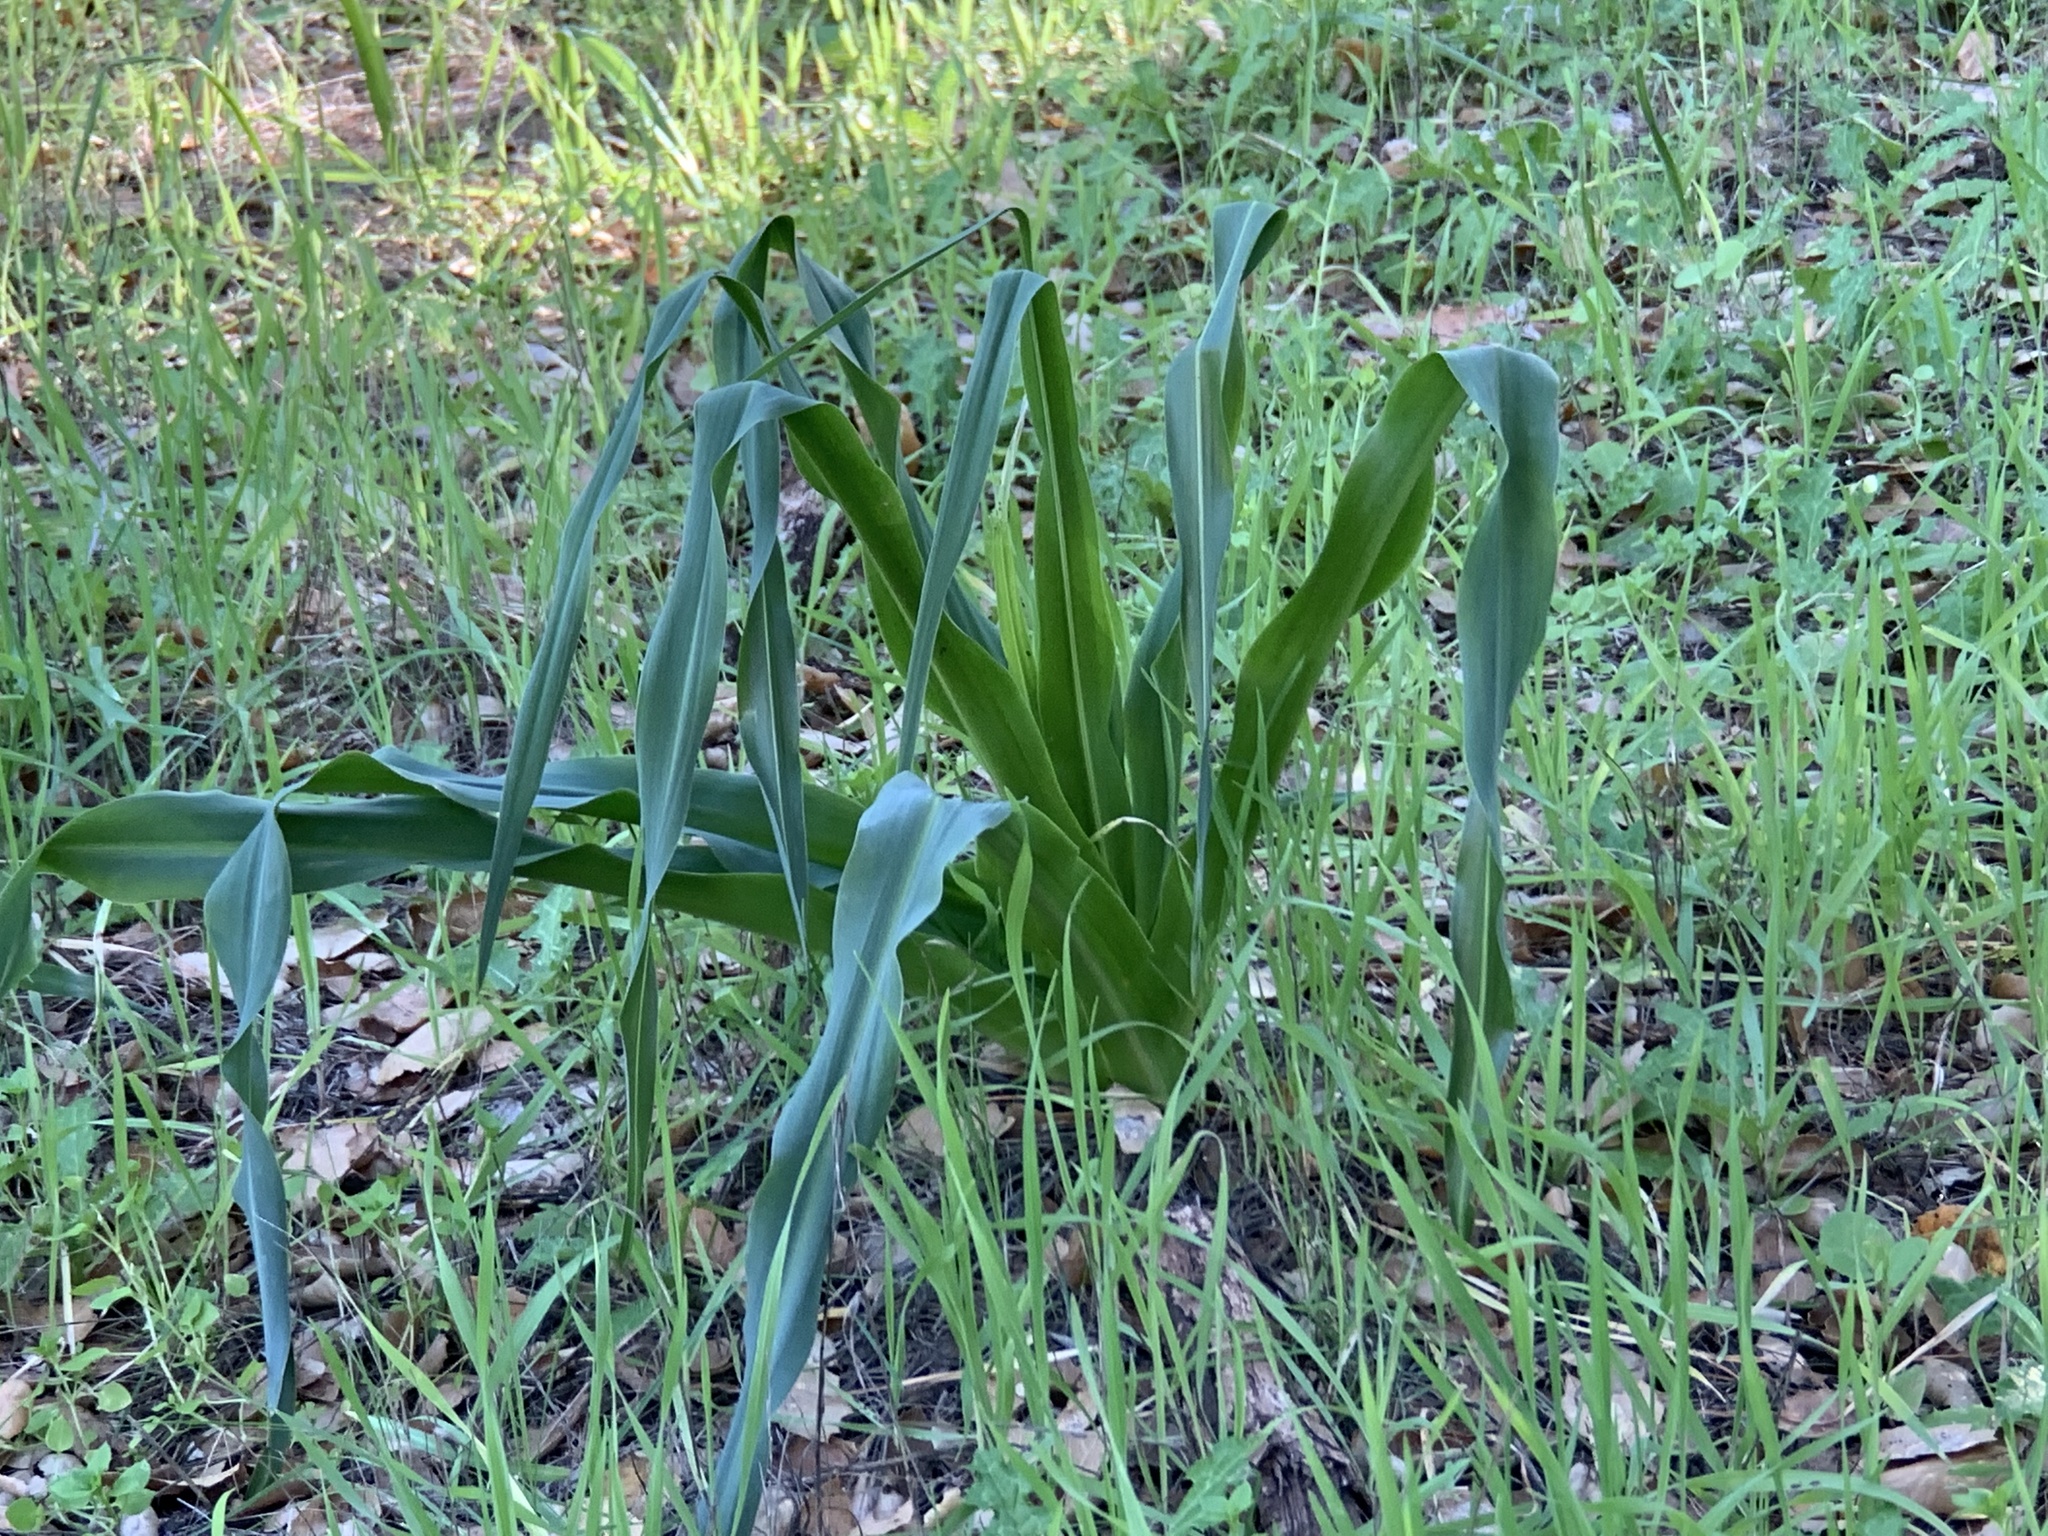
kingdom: Plantae
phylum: Tracheophyta
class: Liliopsida
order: Asparagales
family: Asparagaceae
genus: Chlorogalum
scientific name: Chlorogalum pomeridianum
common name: Amole
